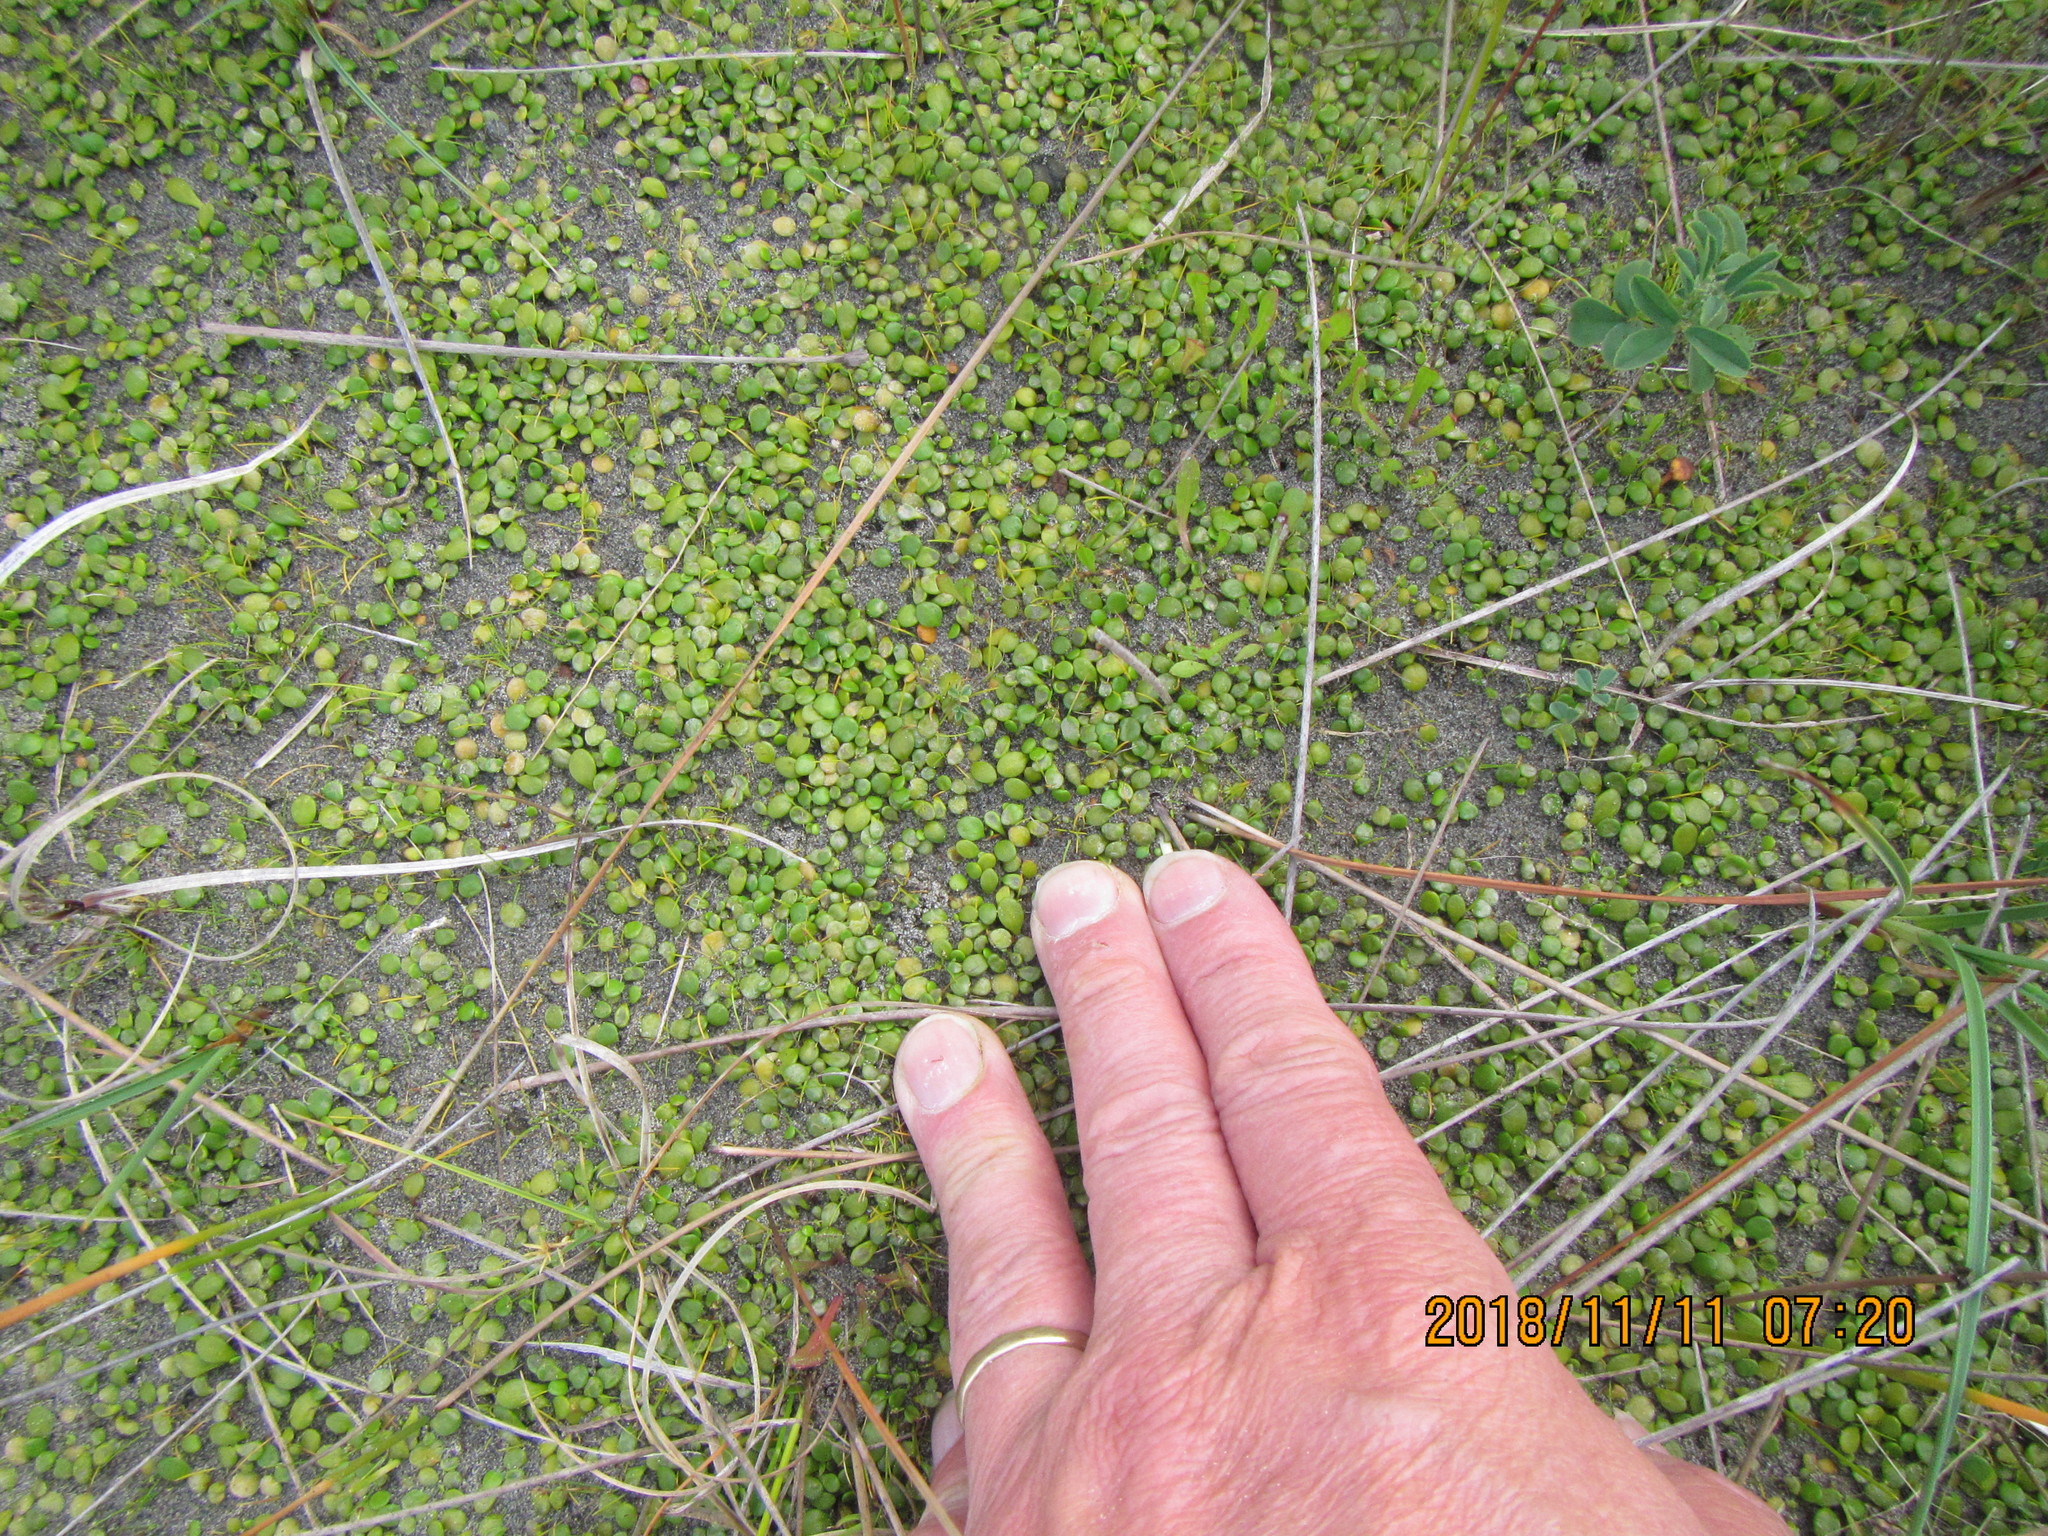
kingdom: Plantae
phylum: Tracheophyta
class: Magnoliopsida
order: Asterales
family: Goodeniaceae
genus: Goodenia
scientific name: Goodenia heenanii
